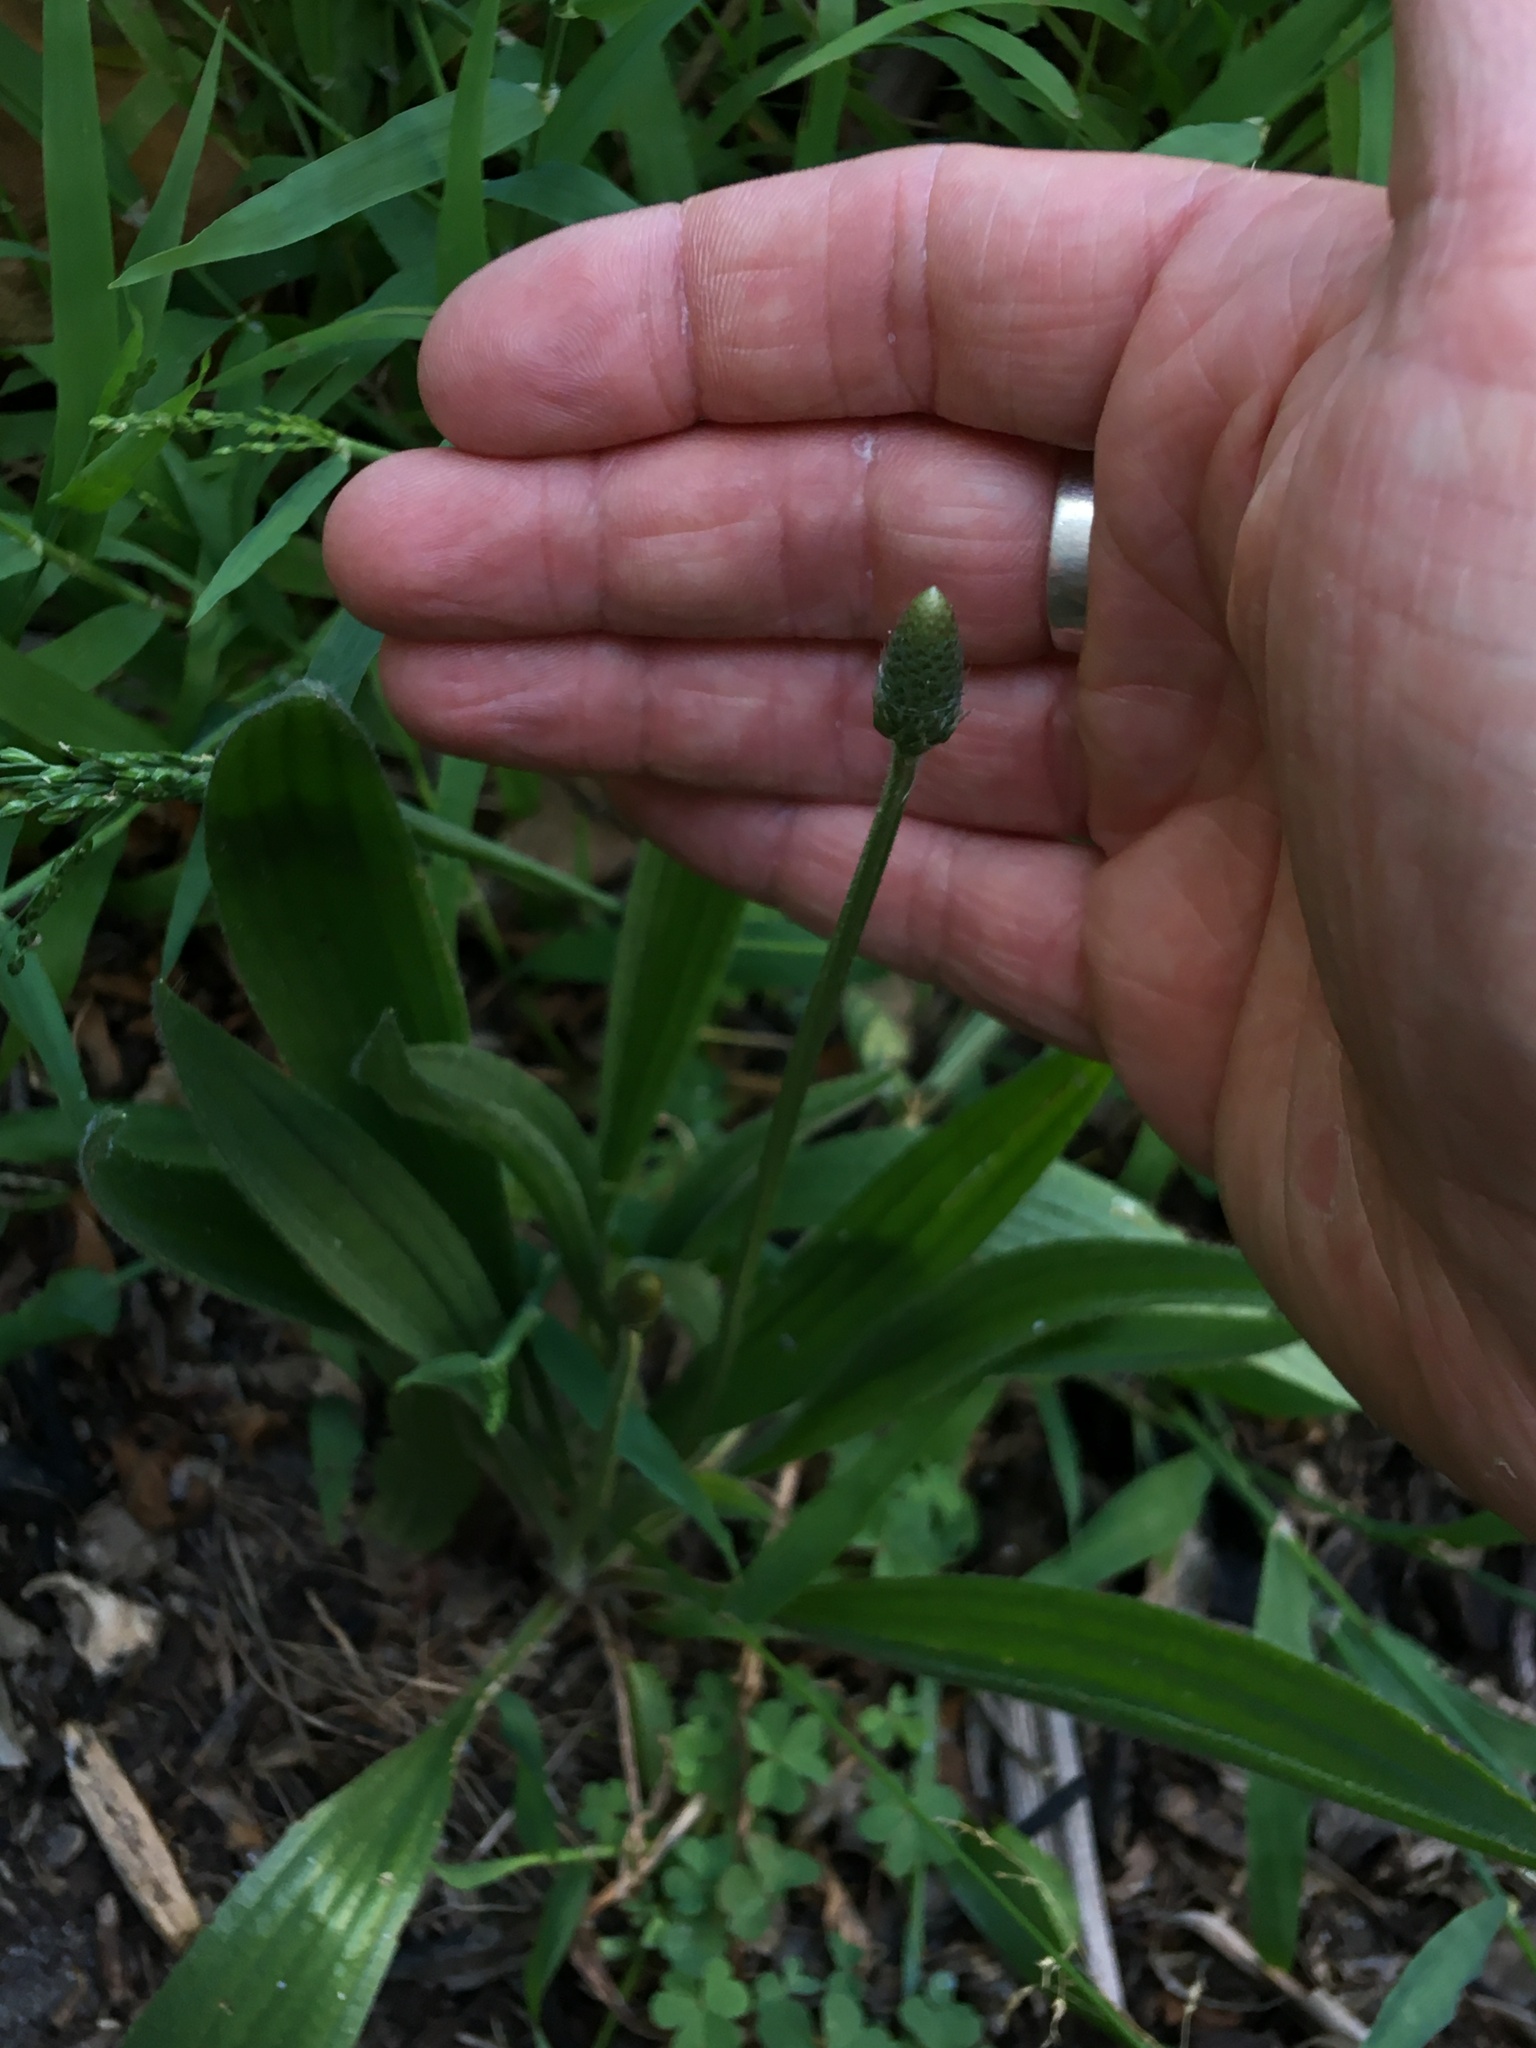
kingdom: Plantae
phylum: Tracheophyta
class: Magnoliopsida
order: Lamiales
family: Plantaginaceae
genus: Plantago
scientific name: Plantago lanceolata
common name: Ribwort plantain
